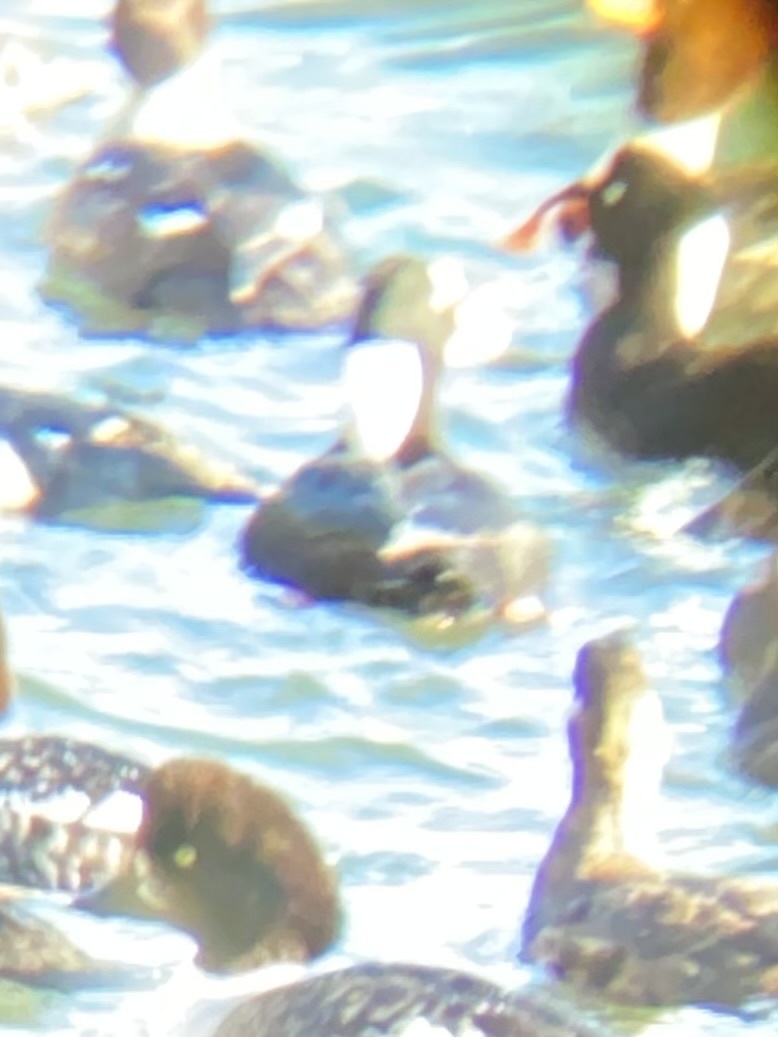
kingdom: Animalia
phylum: Chordata
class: Aves
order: Anseriformes
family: Anatidae
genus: Melanitta
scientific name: Melanitta perspicillata
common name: Surf scoter
